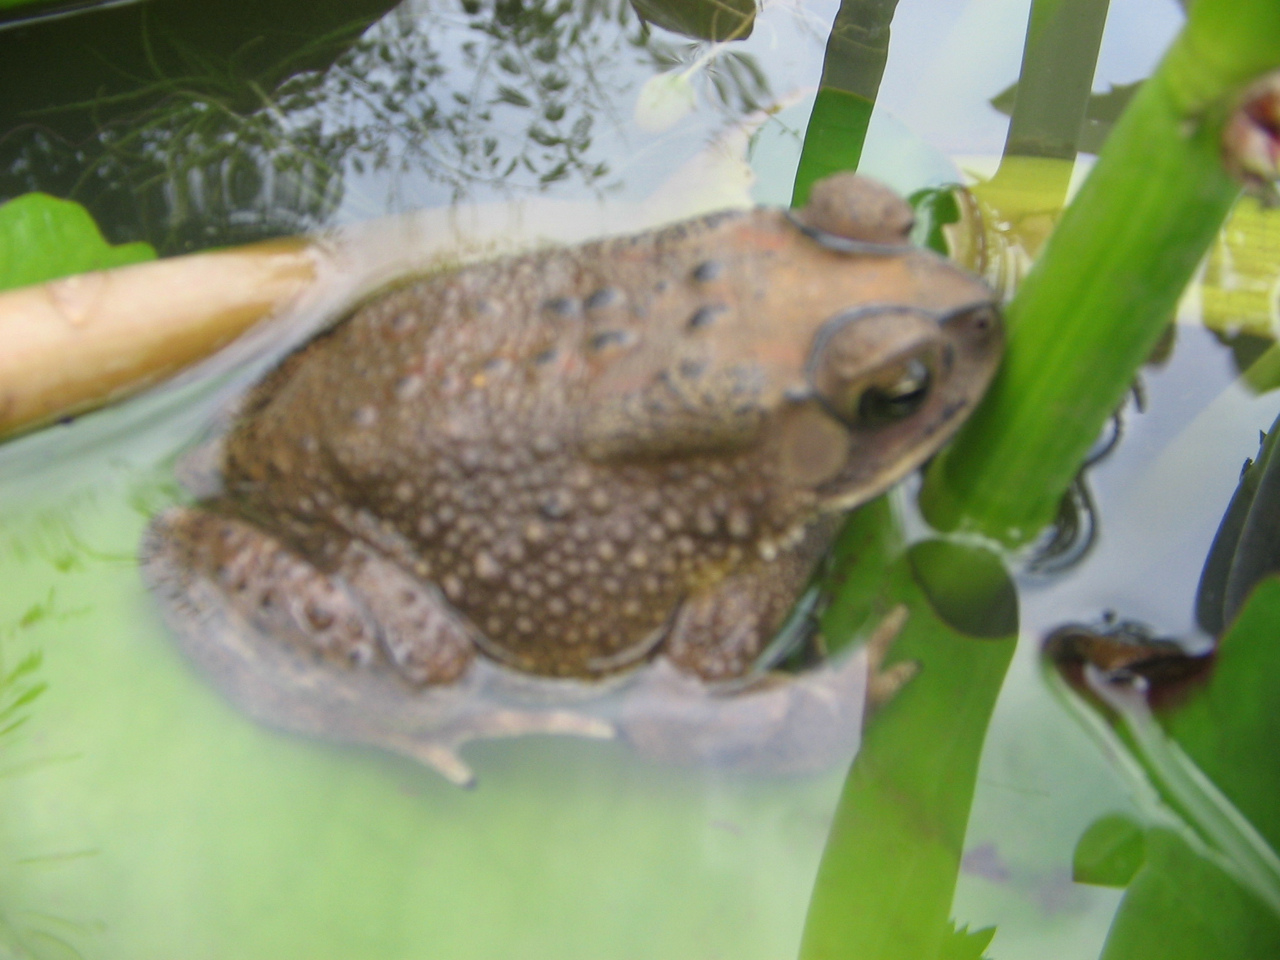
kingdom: Animalia
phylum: Chordata
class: Amphibia
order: Anura
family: Bufonidae
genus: Duttaphrynus
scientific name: Duttaphrynus melanostictus
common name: Common sunda toad
